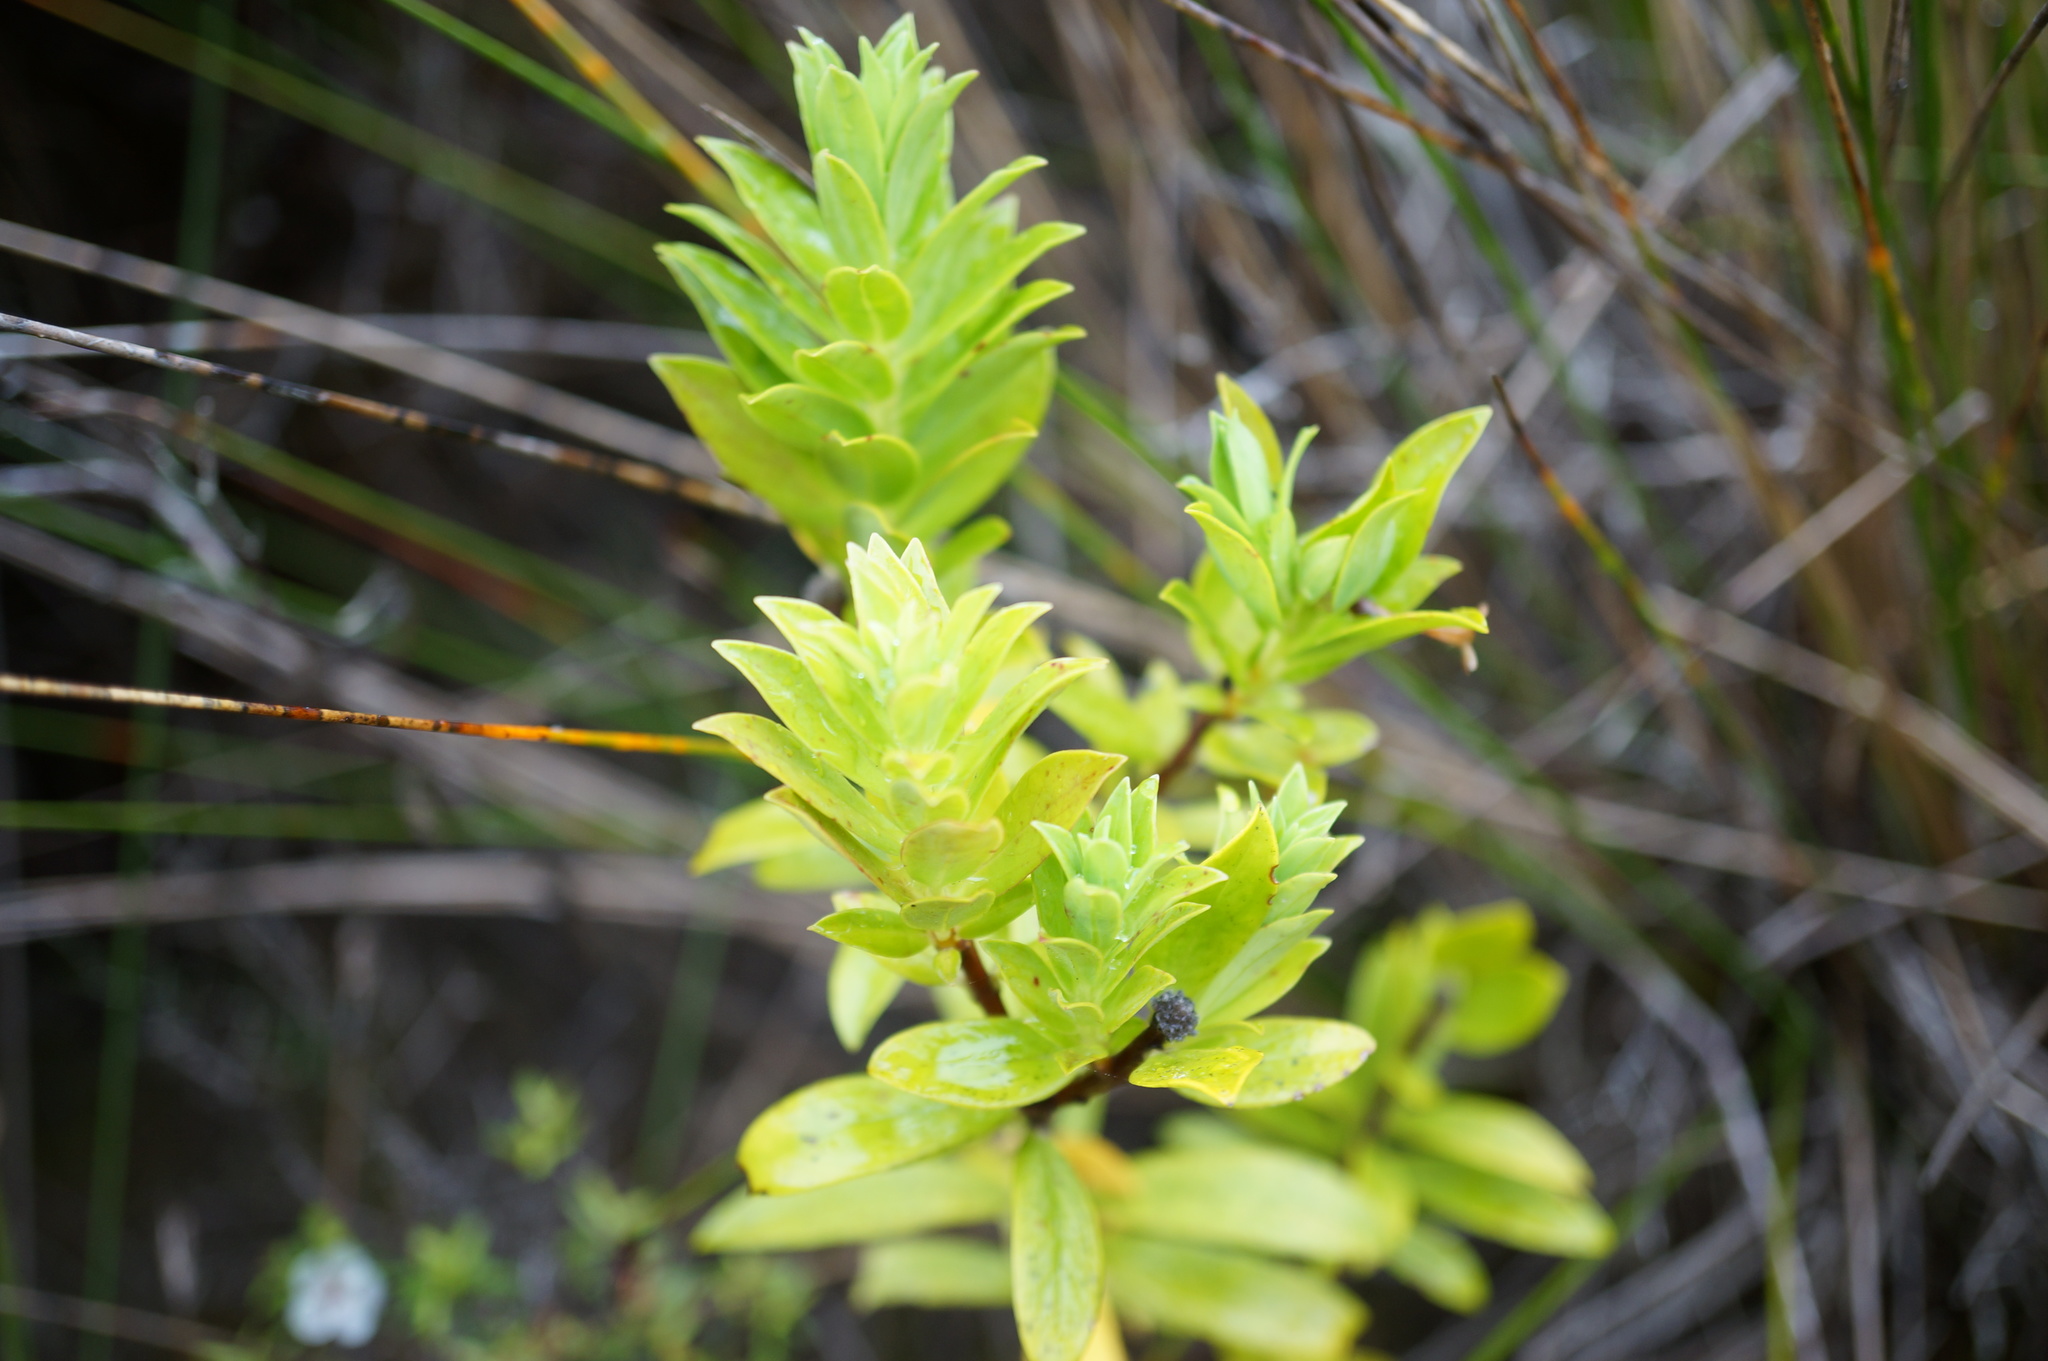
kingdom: Plantae
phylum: Tracheophyta
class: Magnoliopsida
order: Malvales
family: Thymelaeaceae
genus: Pimelea
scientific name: Pimelea longifolia
